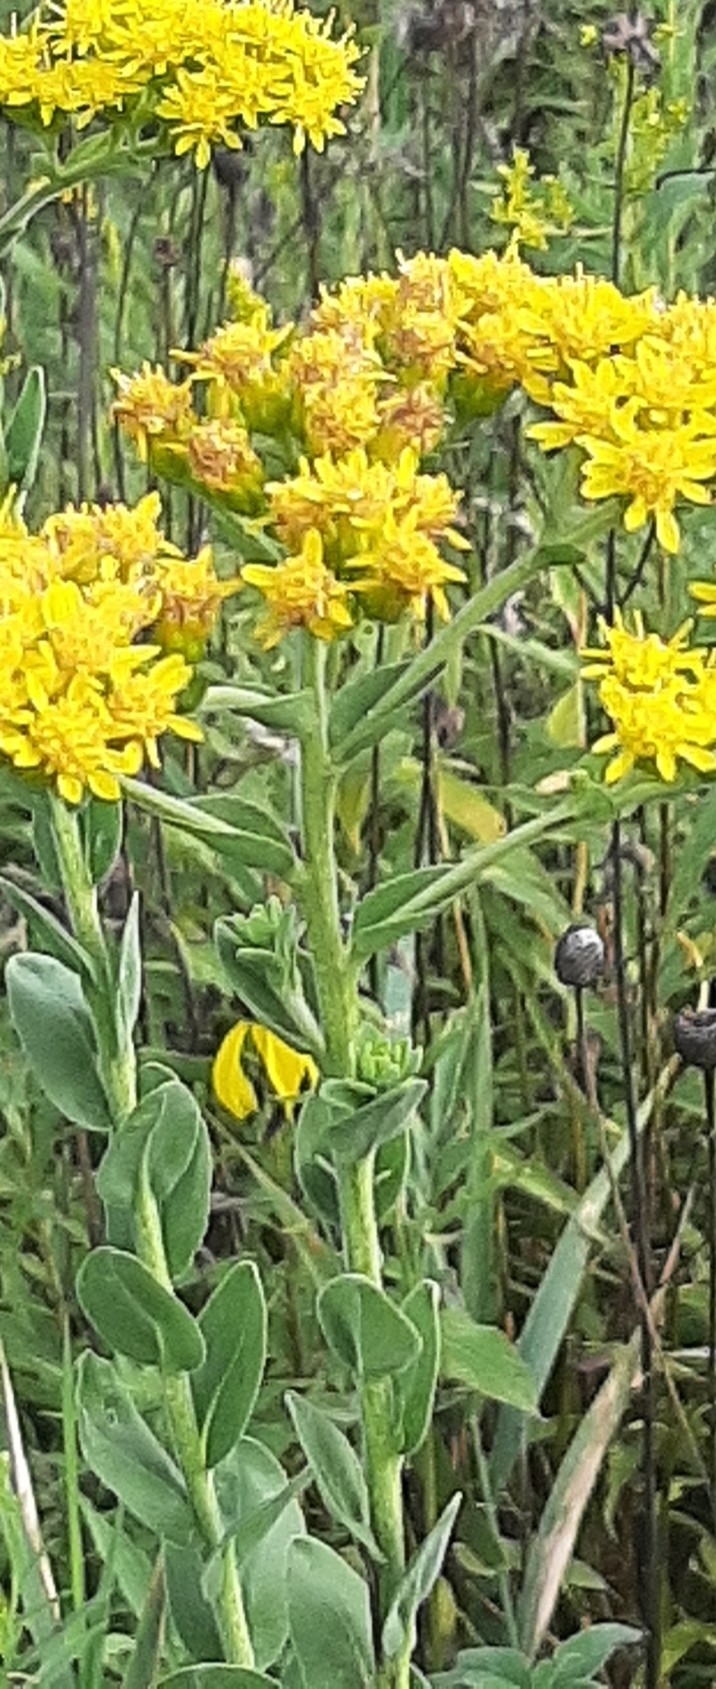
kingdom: Plantae
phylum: Tracheophyta
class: Magnoliopsida
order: Asterales
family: Asteraceae
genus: Solidago
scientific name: Solidago rigida
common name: Rigid goldenrod
